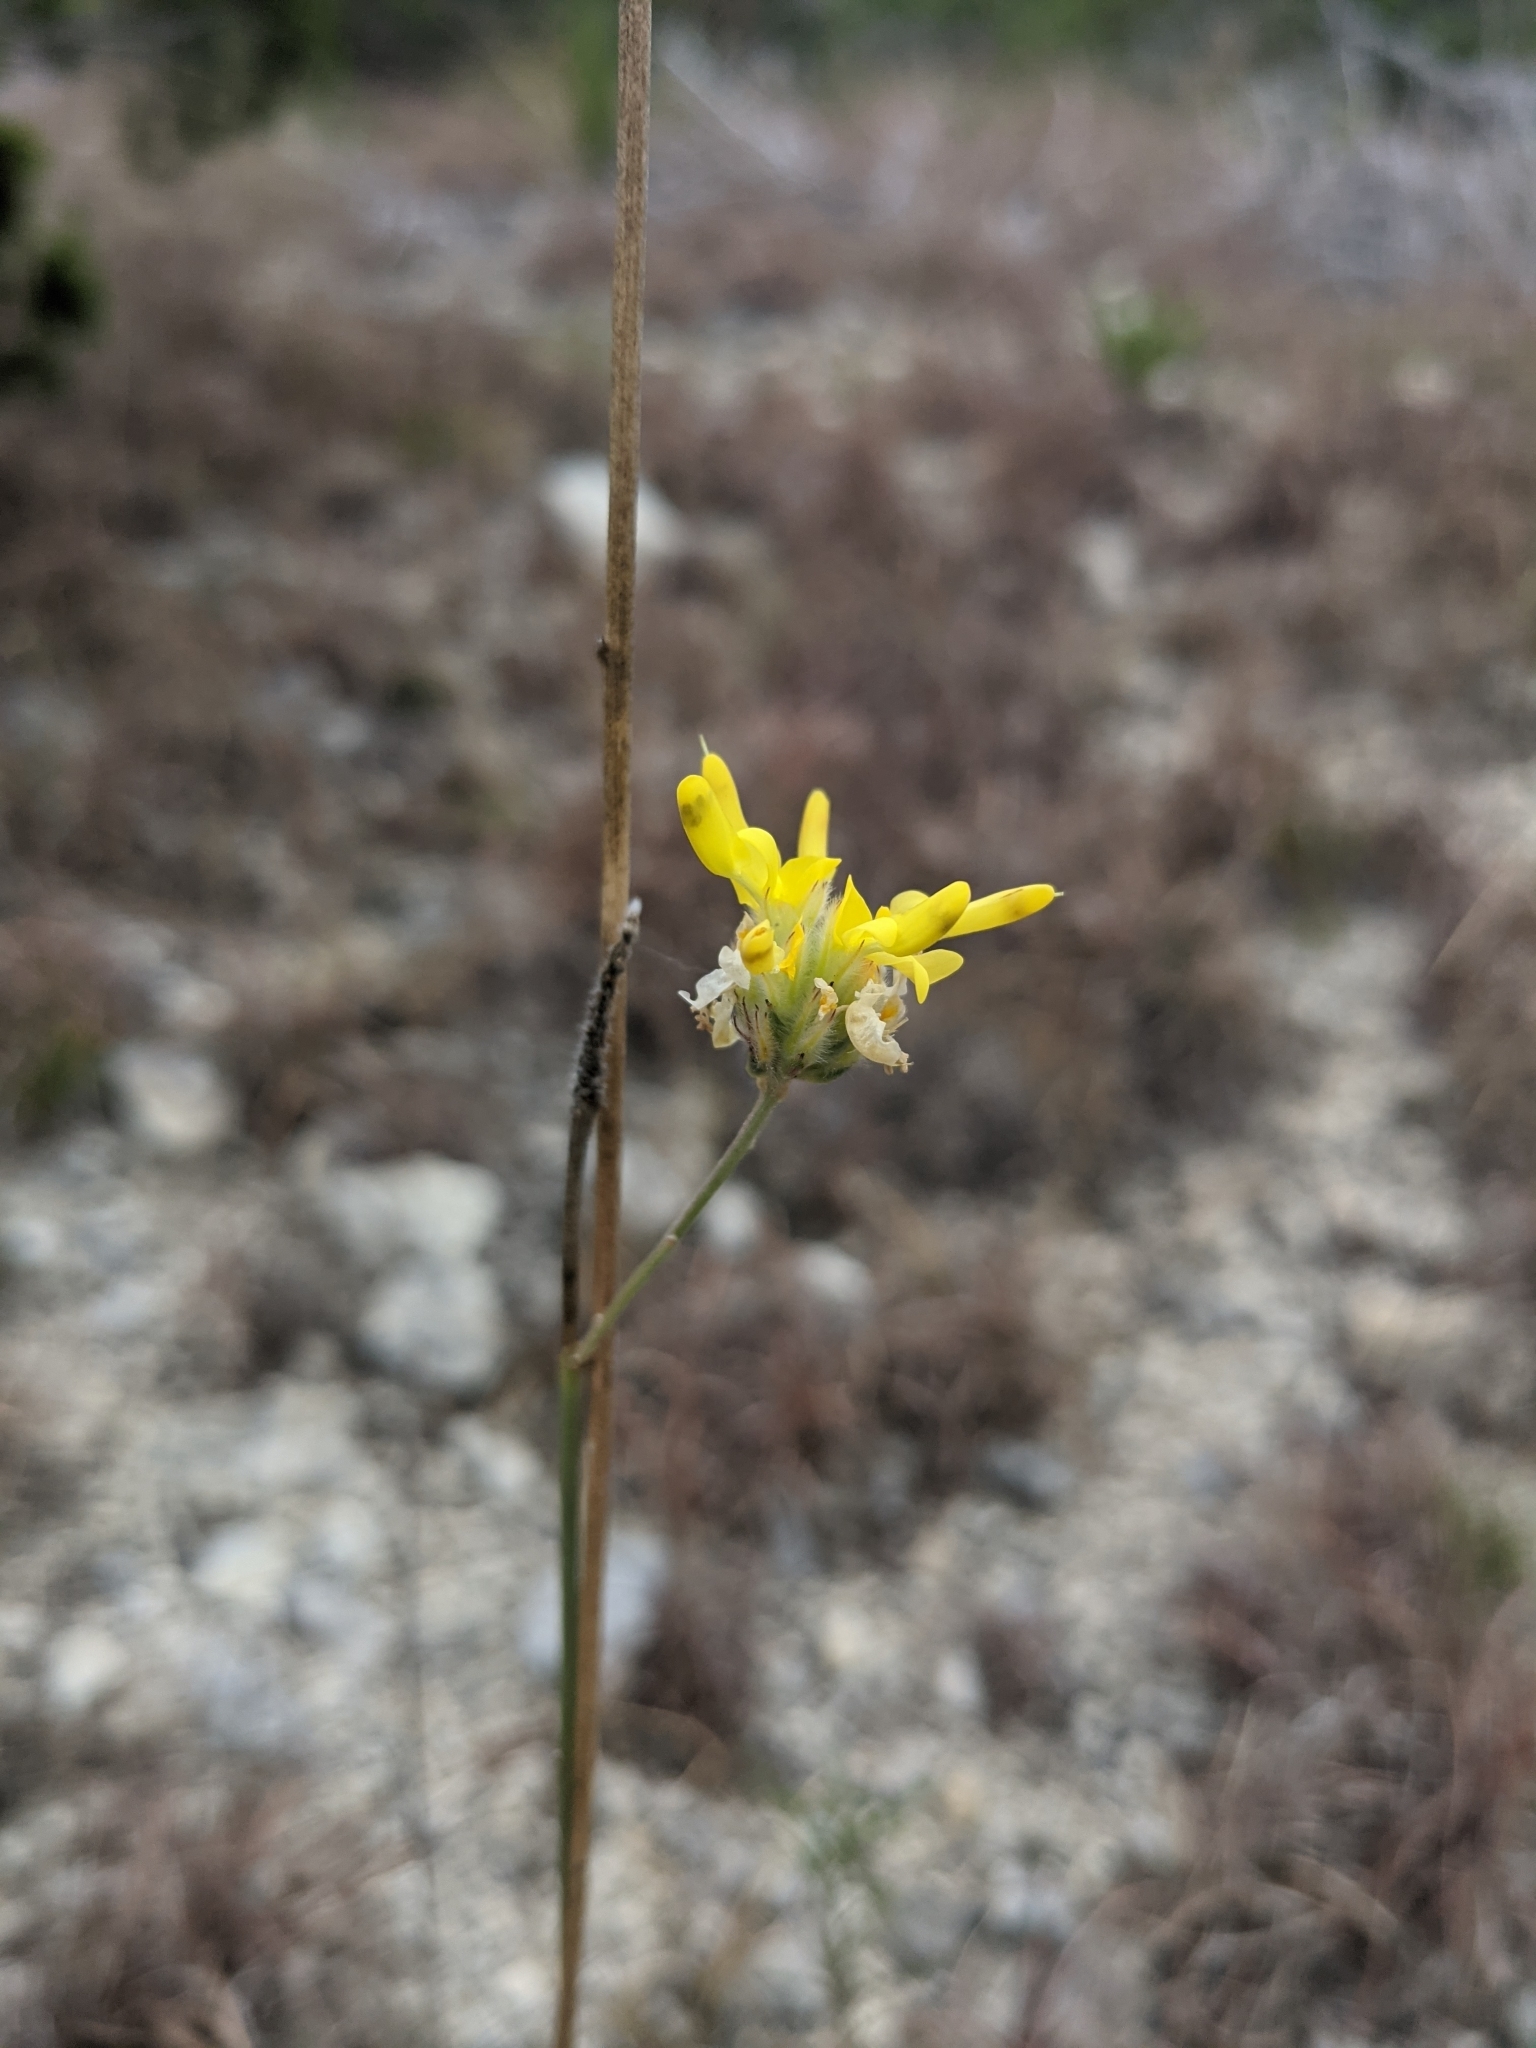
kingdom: Plantae
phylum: Tracheophyta
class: Magnoliopsida
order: Fabales
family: Fabaceae
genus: Dalea
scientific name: Dalea aurea
